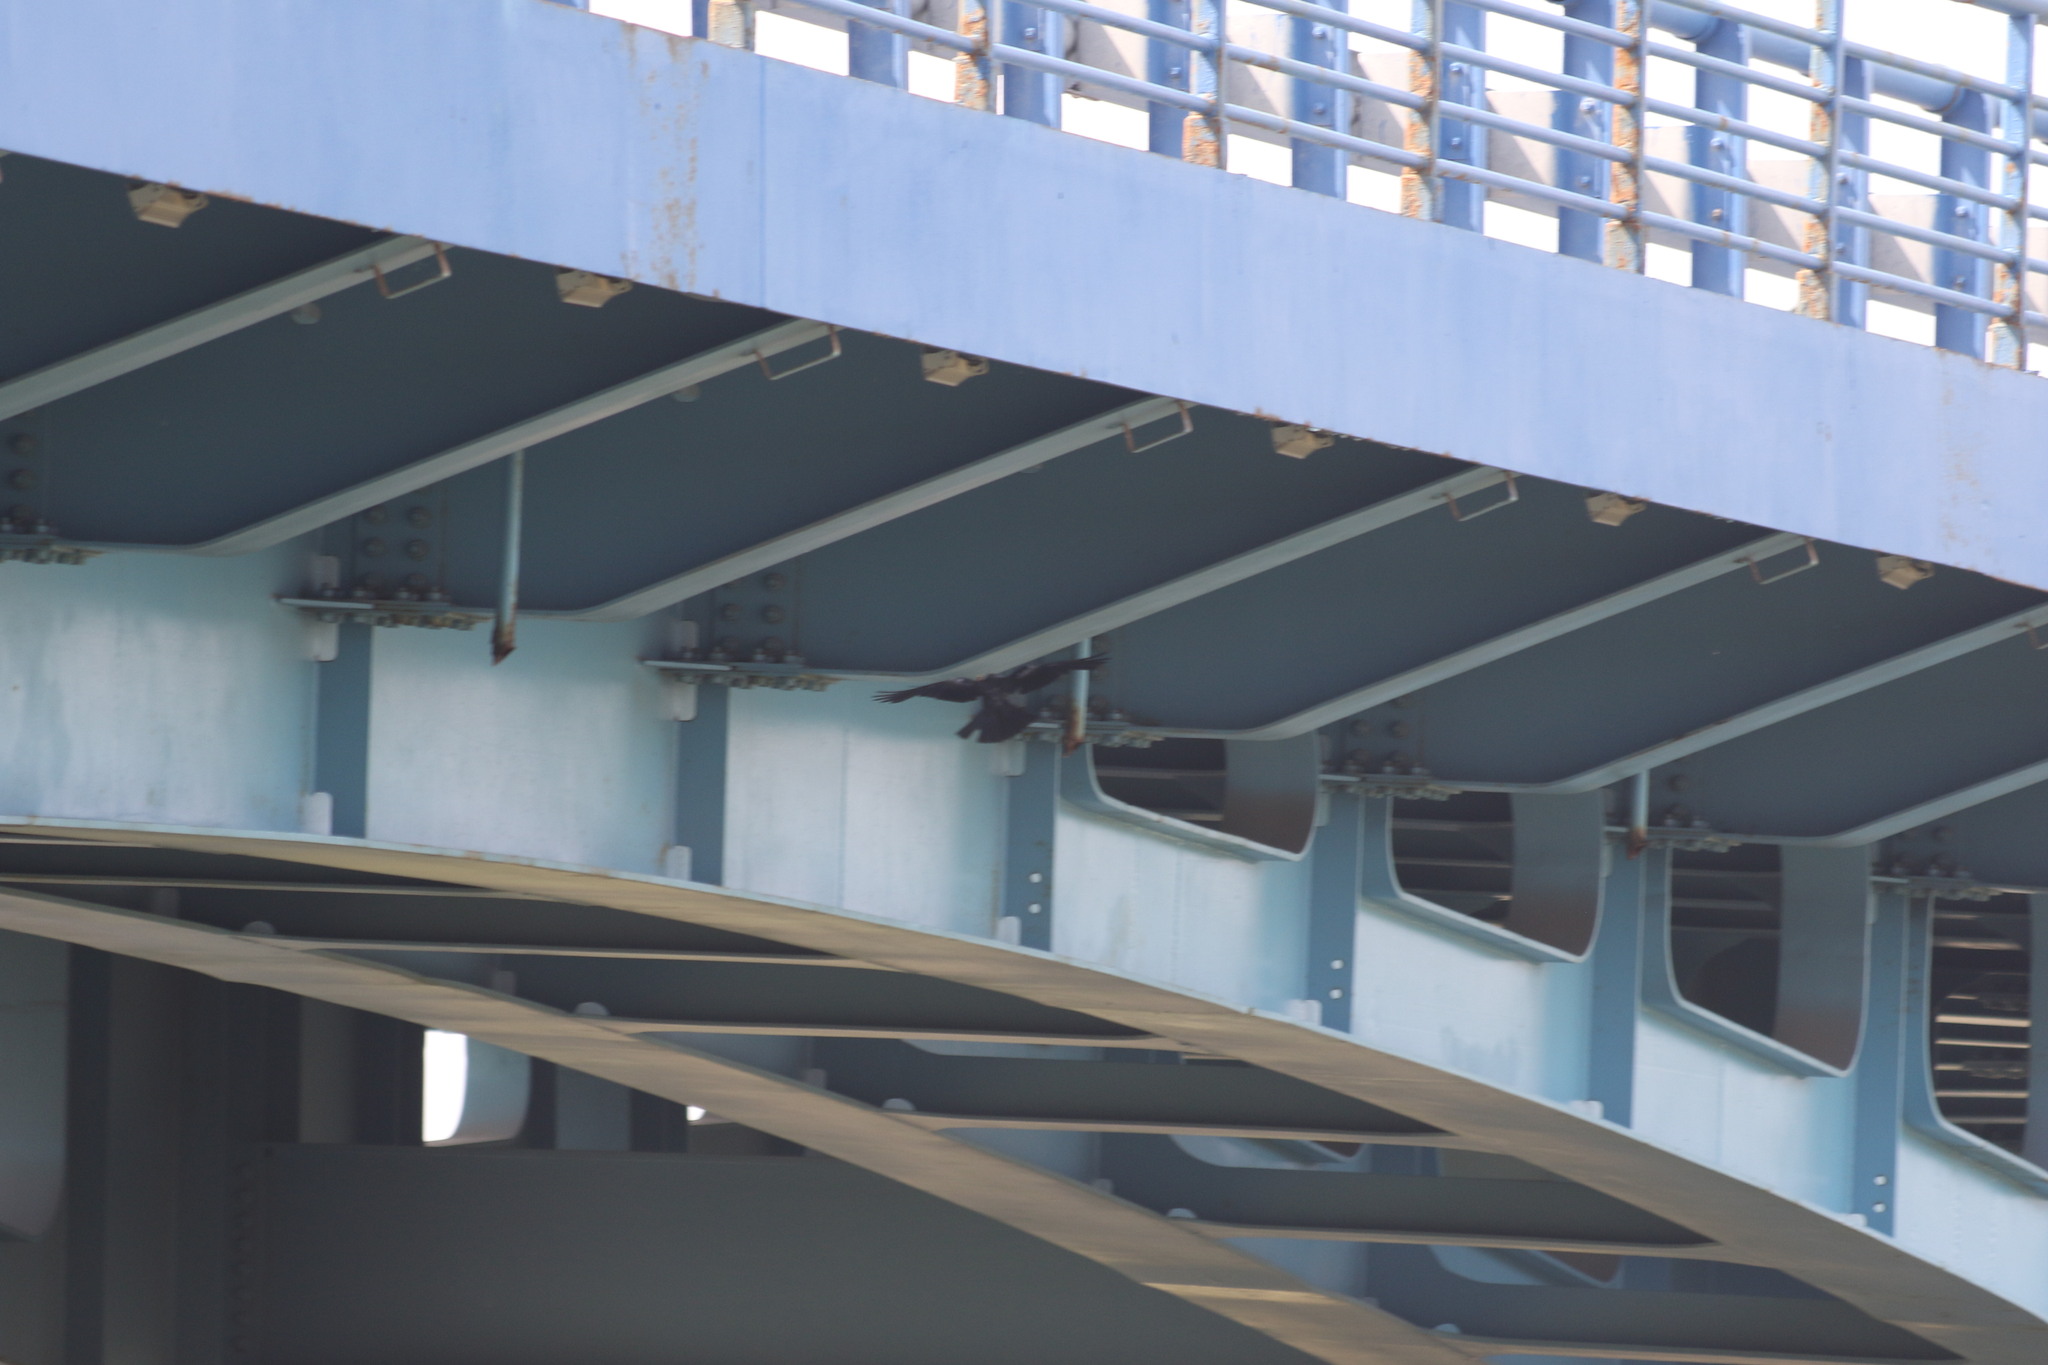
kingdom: Animalia
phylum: Chordata
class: Aves
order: Passeriformes
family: Corvidae
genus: Coloeus
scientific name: Coloeus monedula
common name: Western jackdaw
